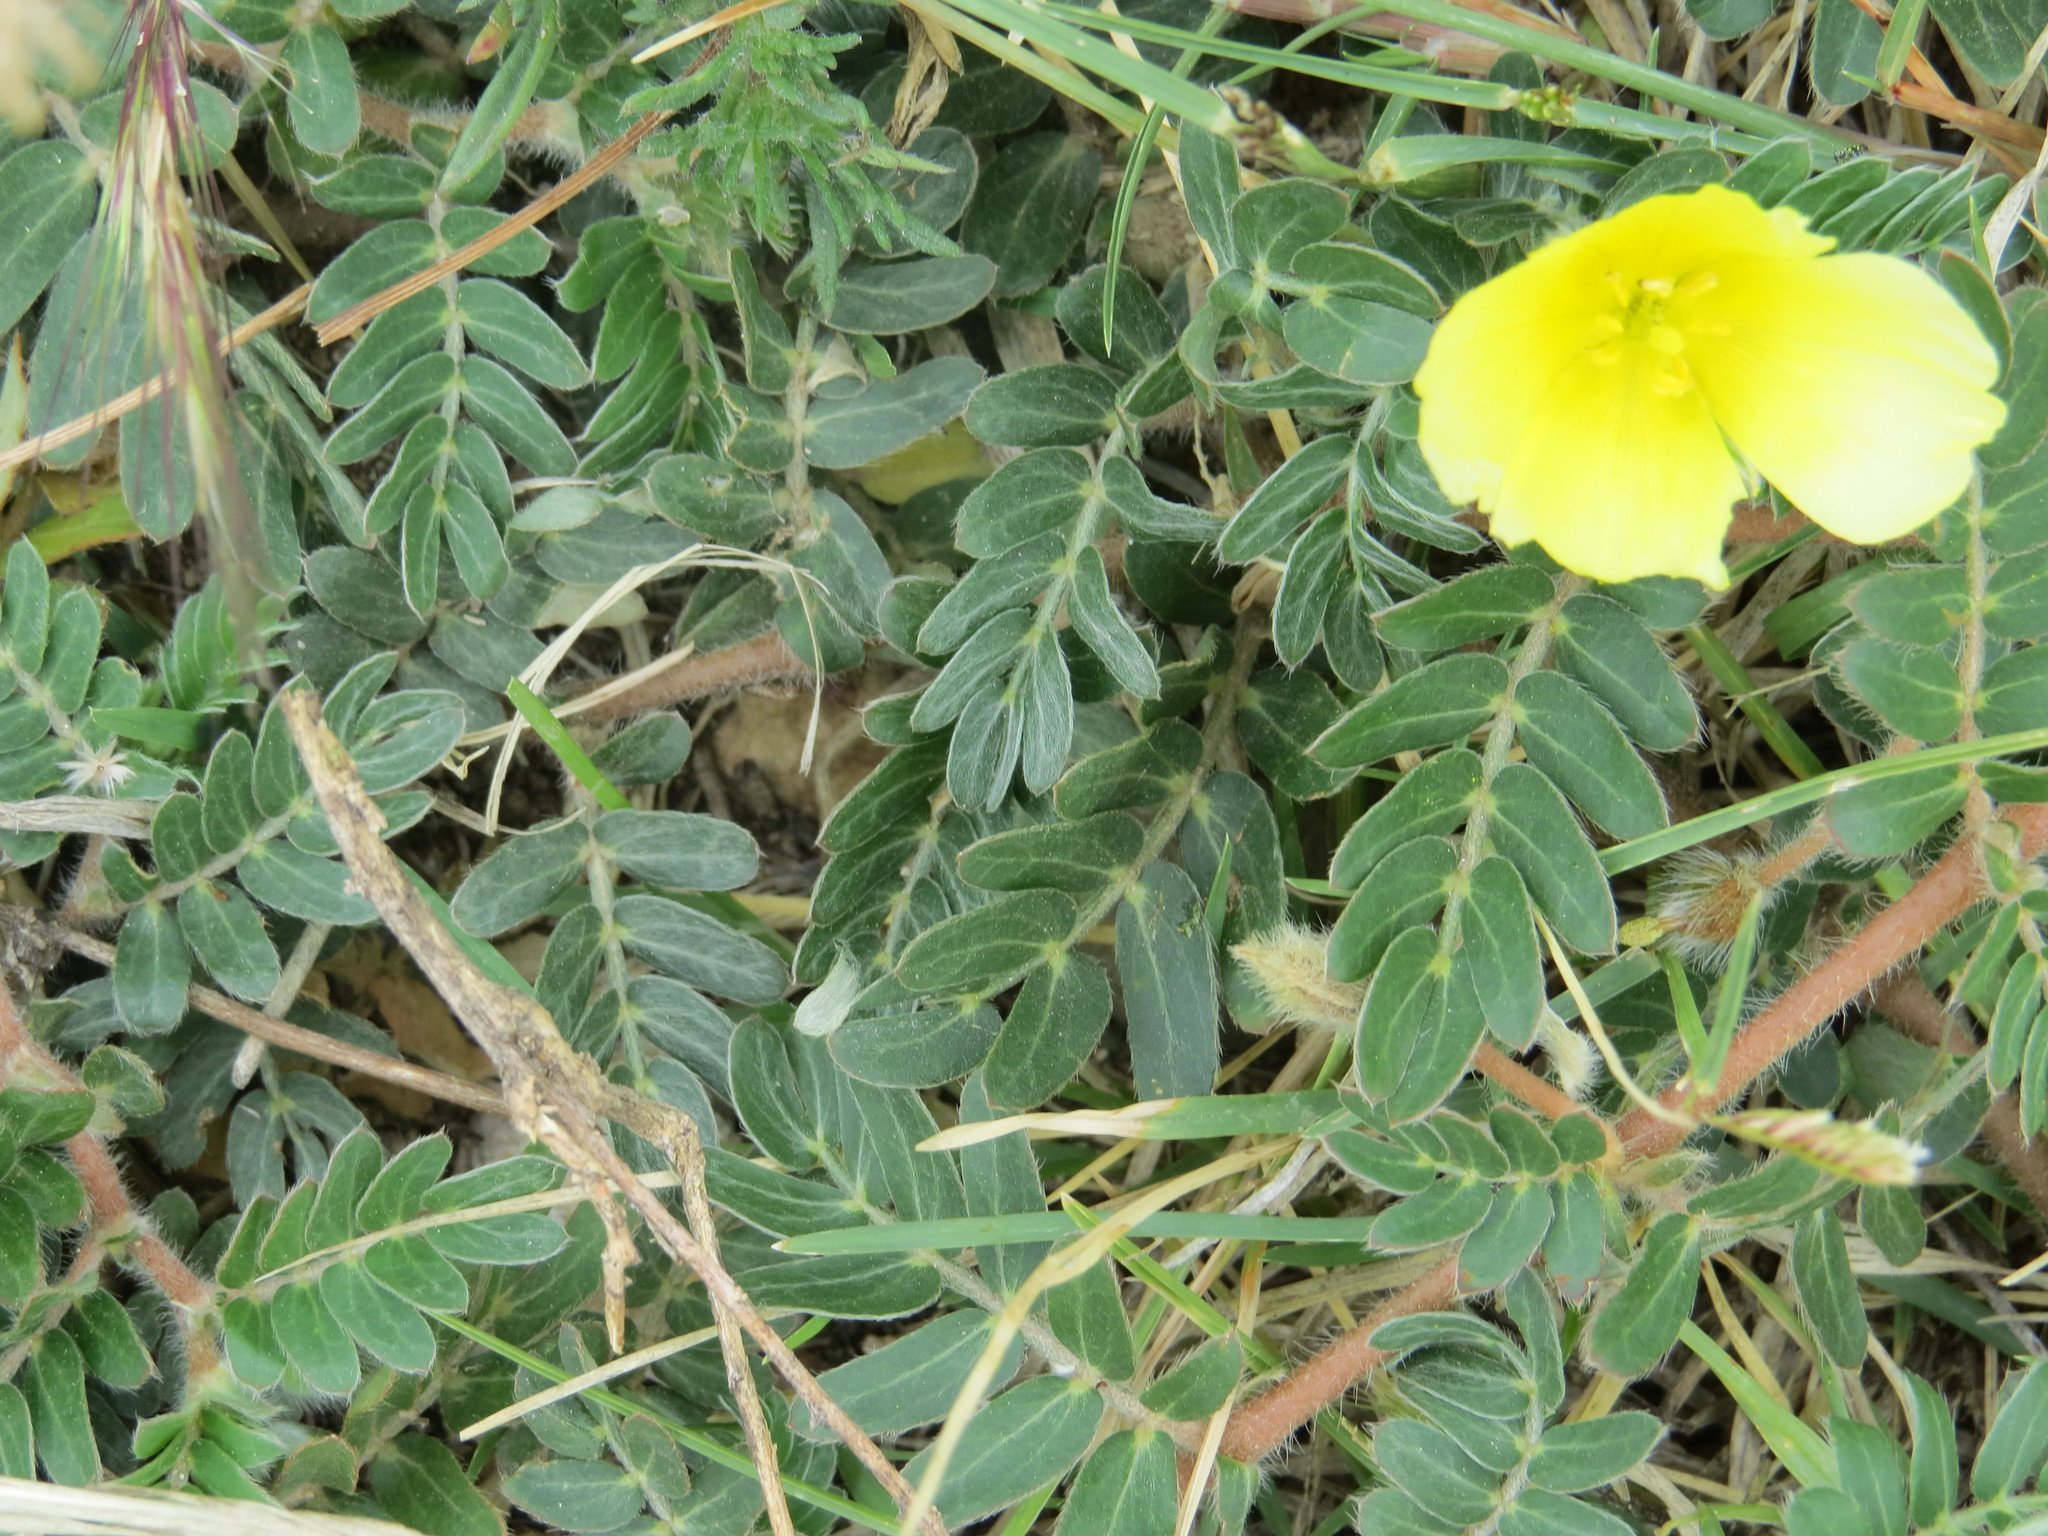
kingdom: Plantae
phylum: Tracheophyta
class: Magnoliopsida
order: Zygophyllales
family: Zygophyllaceae
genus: Tribulus
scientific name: Tribulus cistoides
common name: Jamaican feverplant
